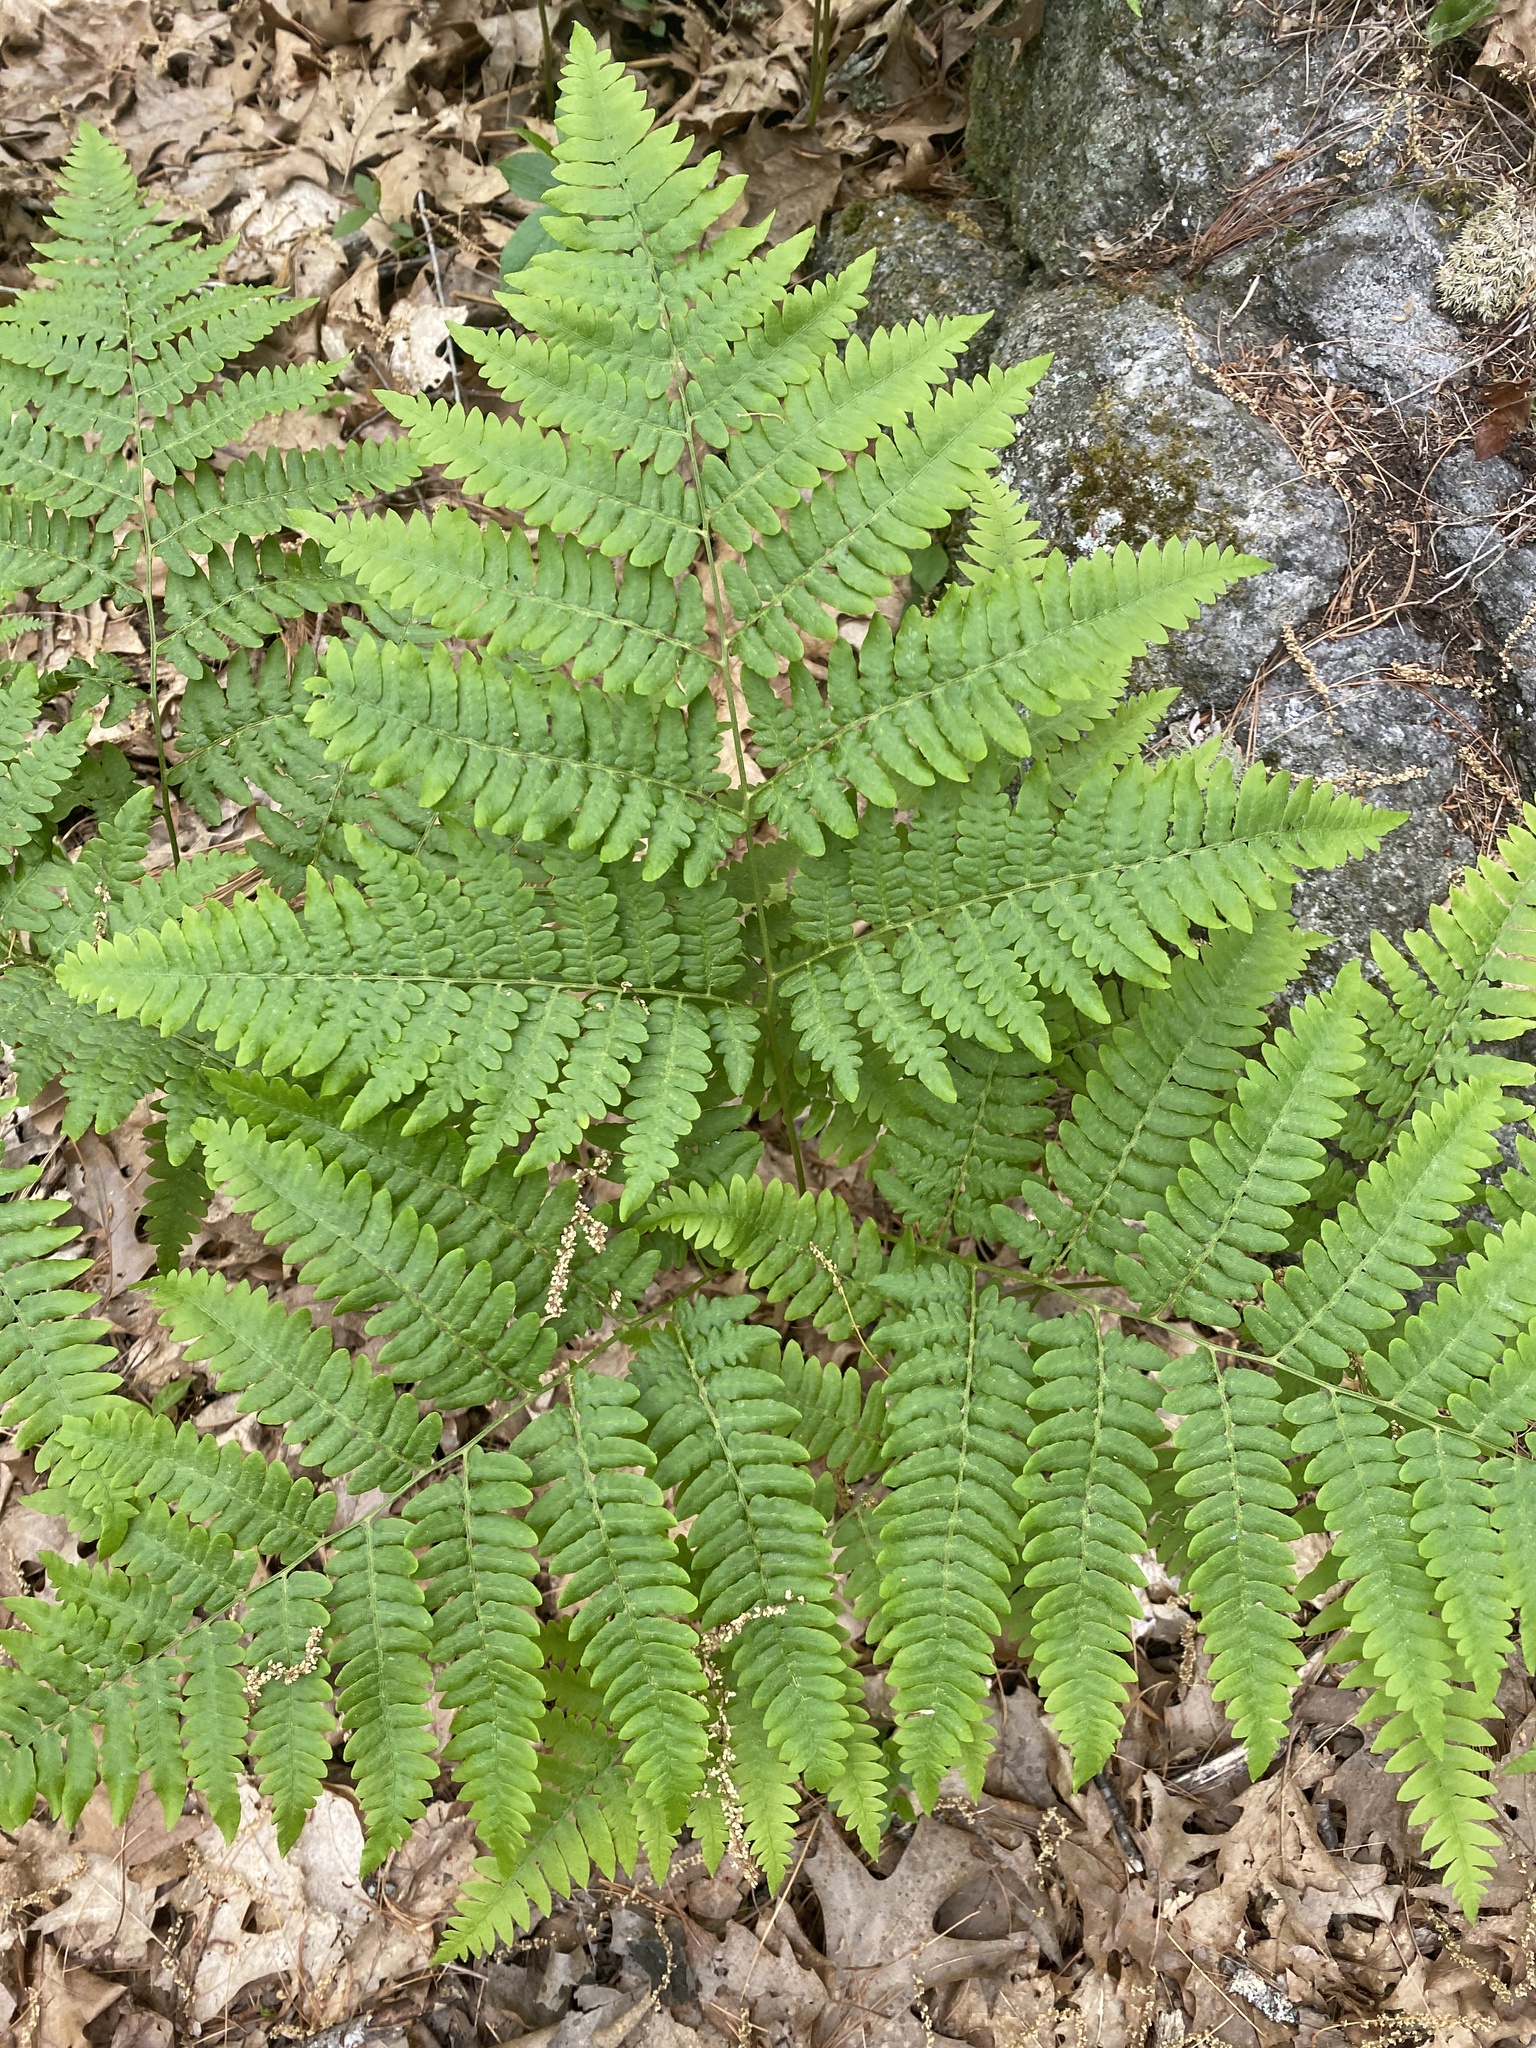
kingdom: Plantae
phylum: Tracheophyta
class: Polypodiopsida
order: Polypodiales
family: Dennstaedtiaceae
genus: Pteridium
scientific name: Pteridium aquilinum
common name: Bracken
